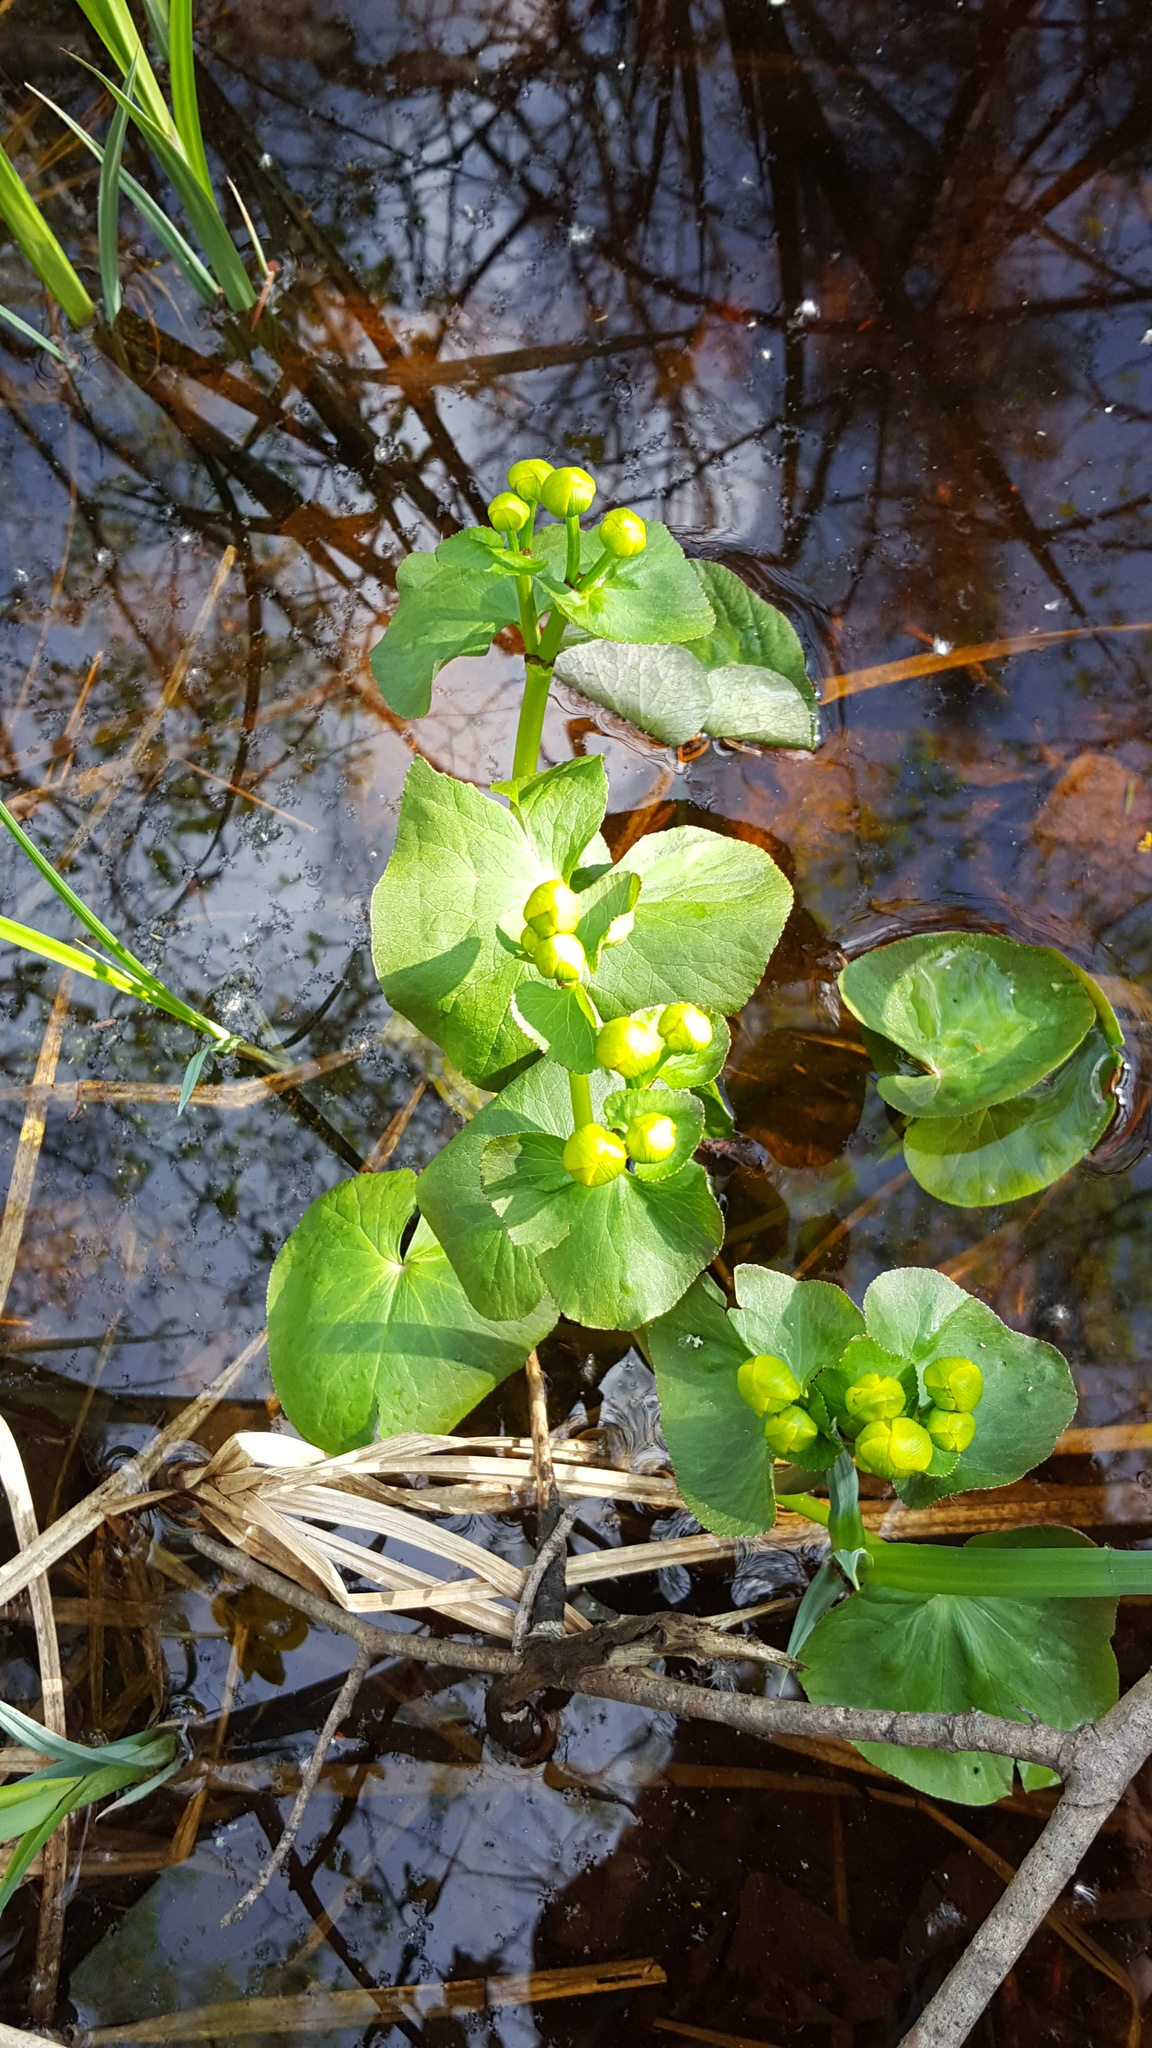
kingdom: Plantae
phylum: Tracheophyta
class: Magnoliopsida
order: Ranunculales
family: Ranunculaceae
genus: Caltha
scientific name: Caltha palustris
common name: Marsh marigold
